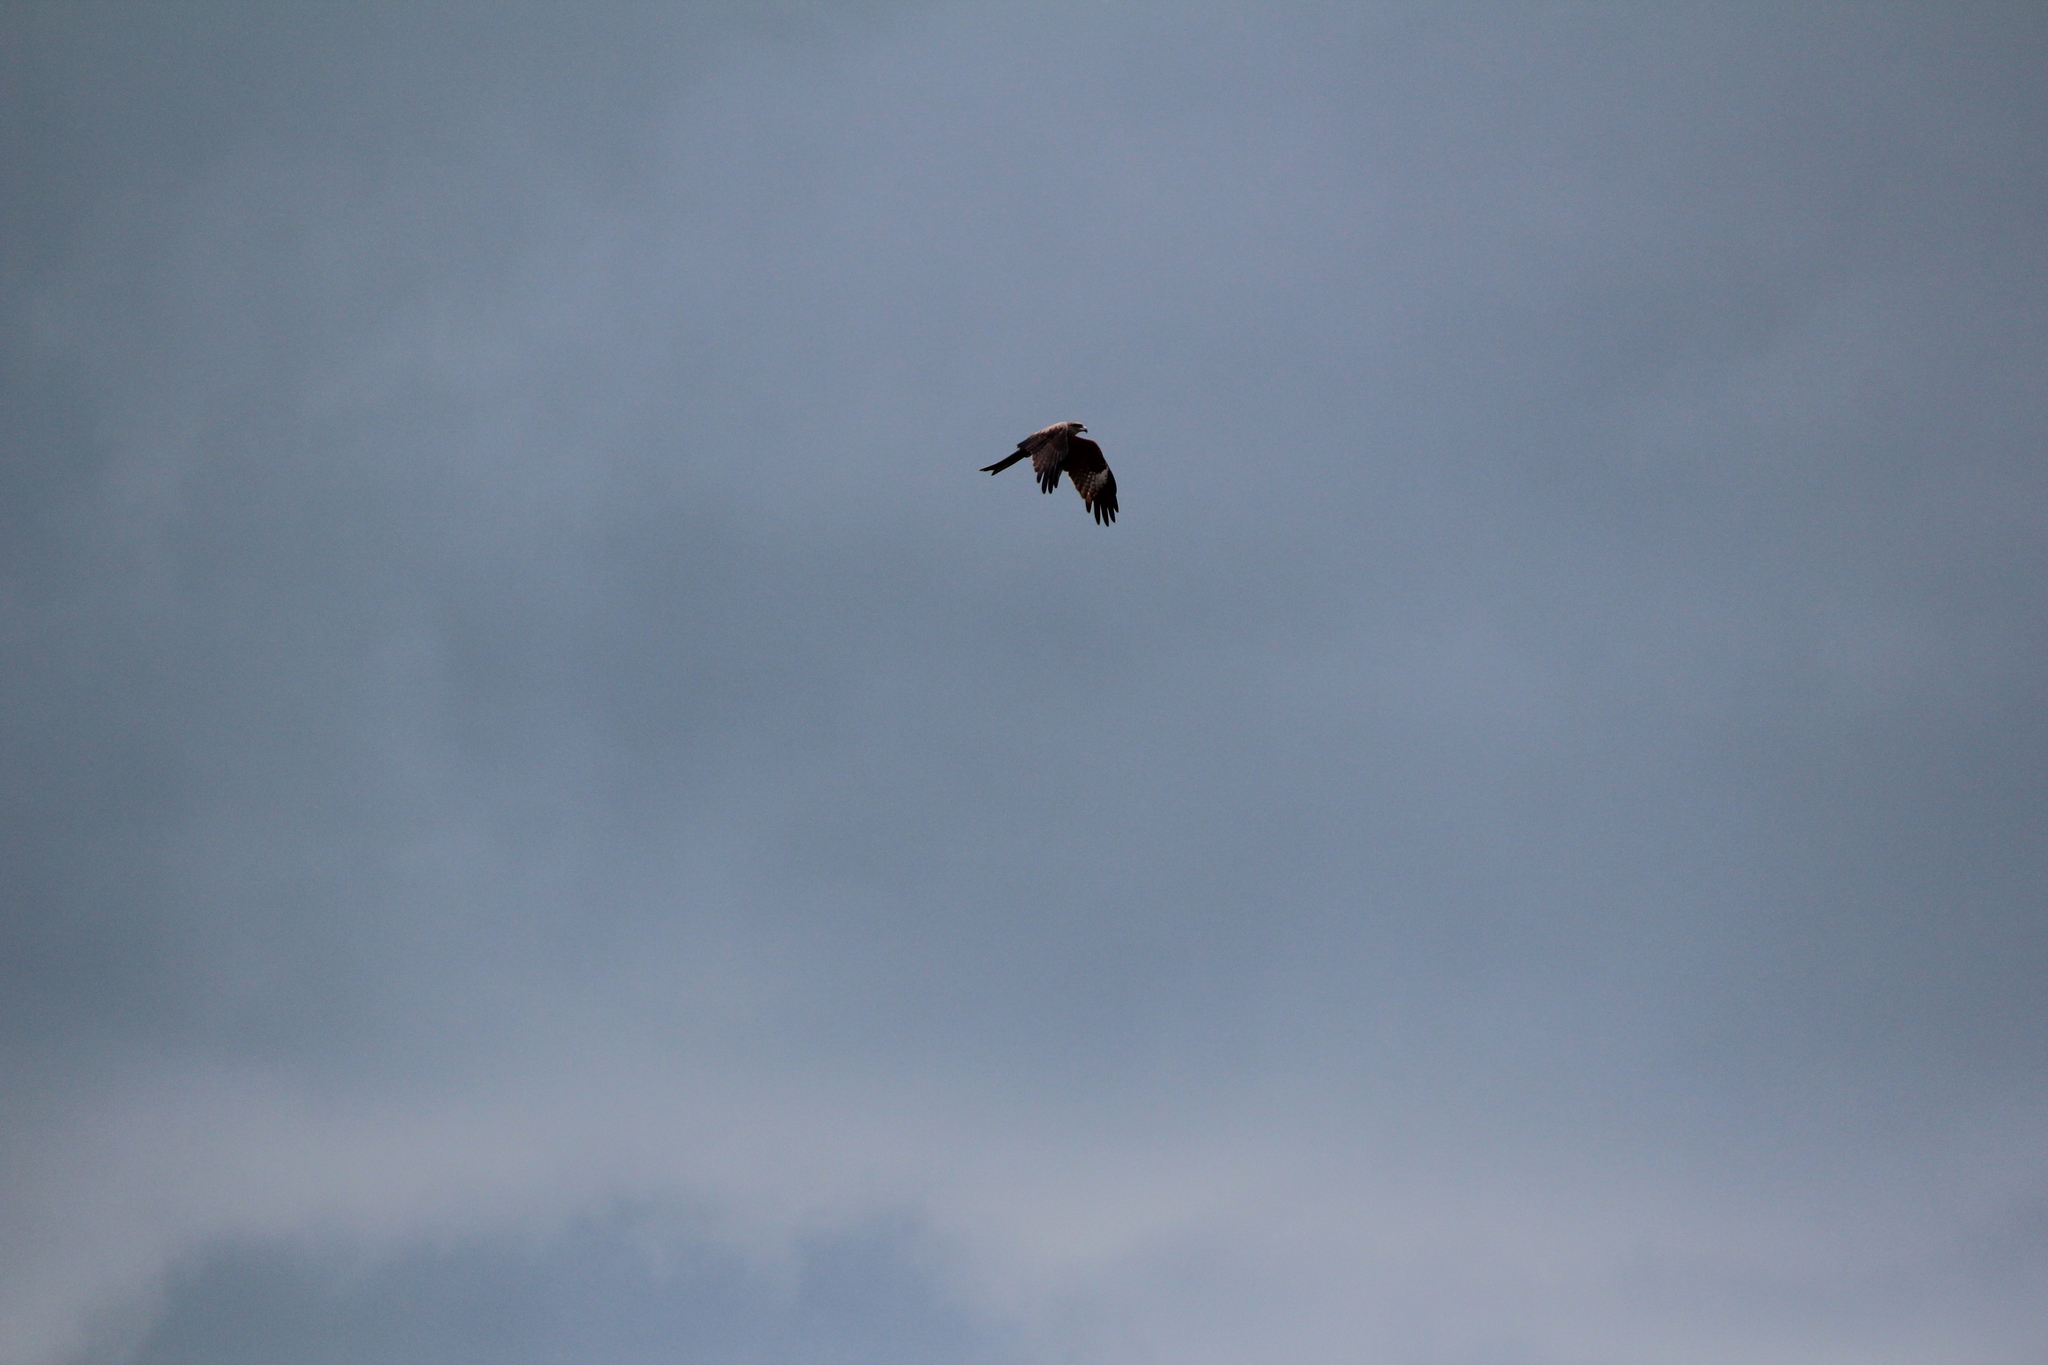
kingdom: Animalia
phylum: Chordata
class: Aves
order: Accipitriformes
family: Accipitridae
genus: Milvus
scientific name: Milvus migrans
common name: Black kite
